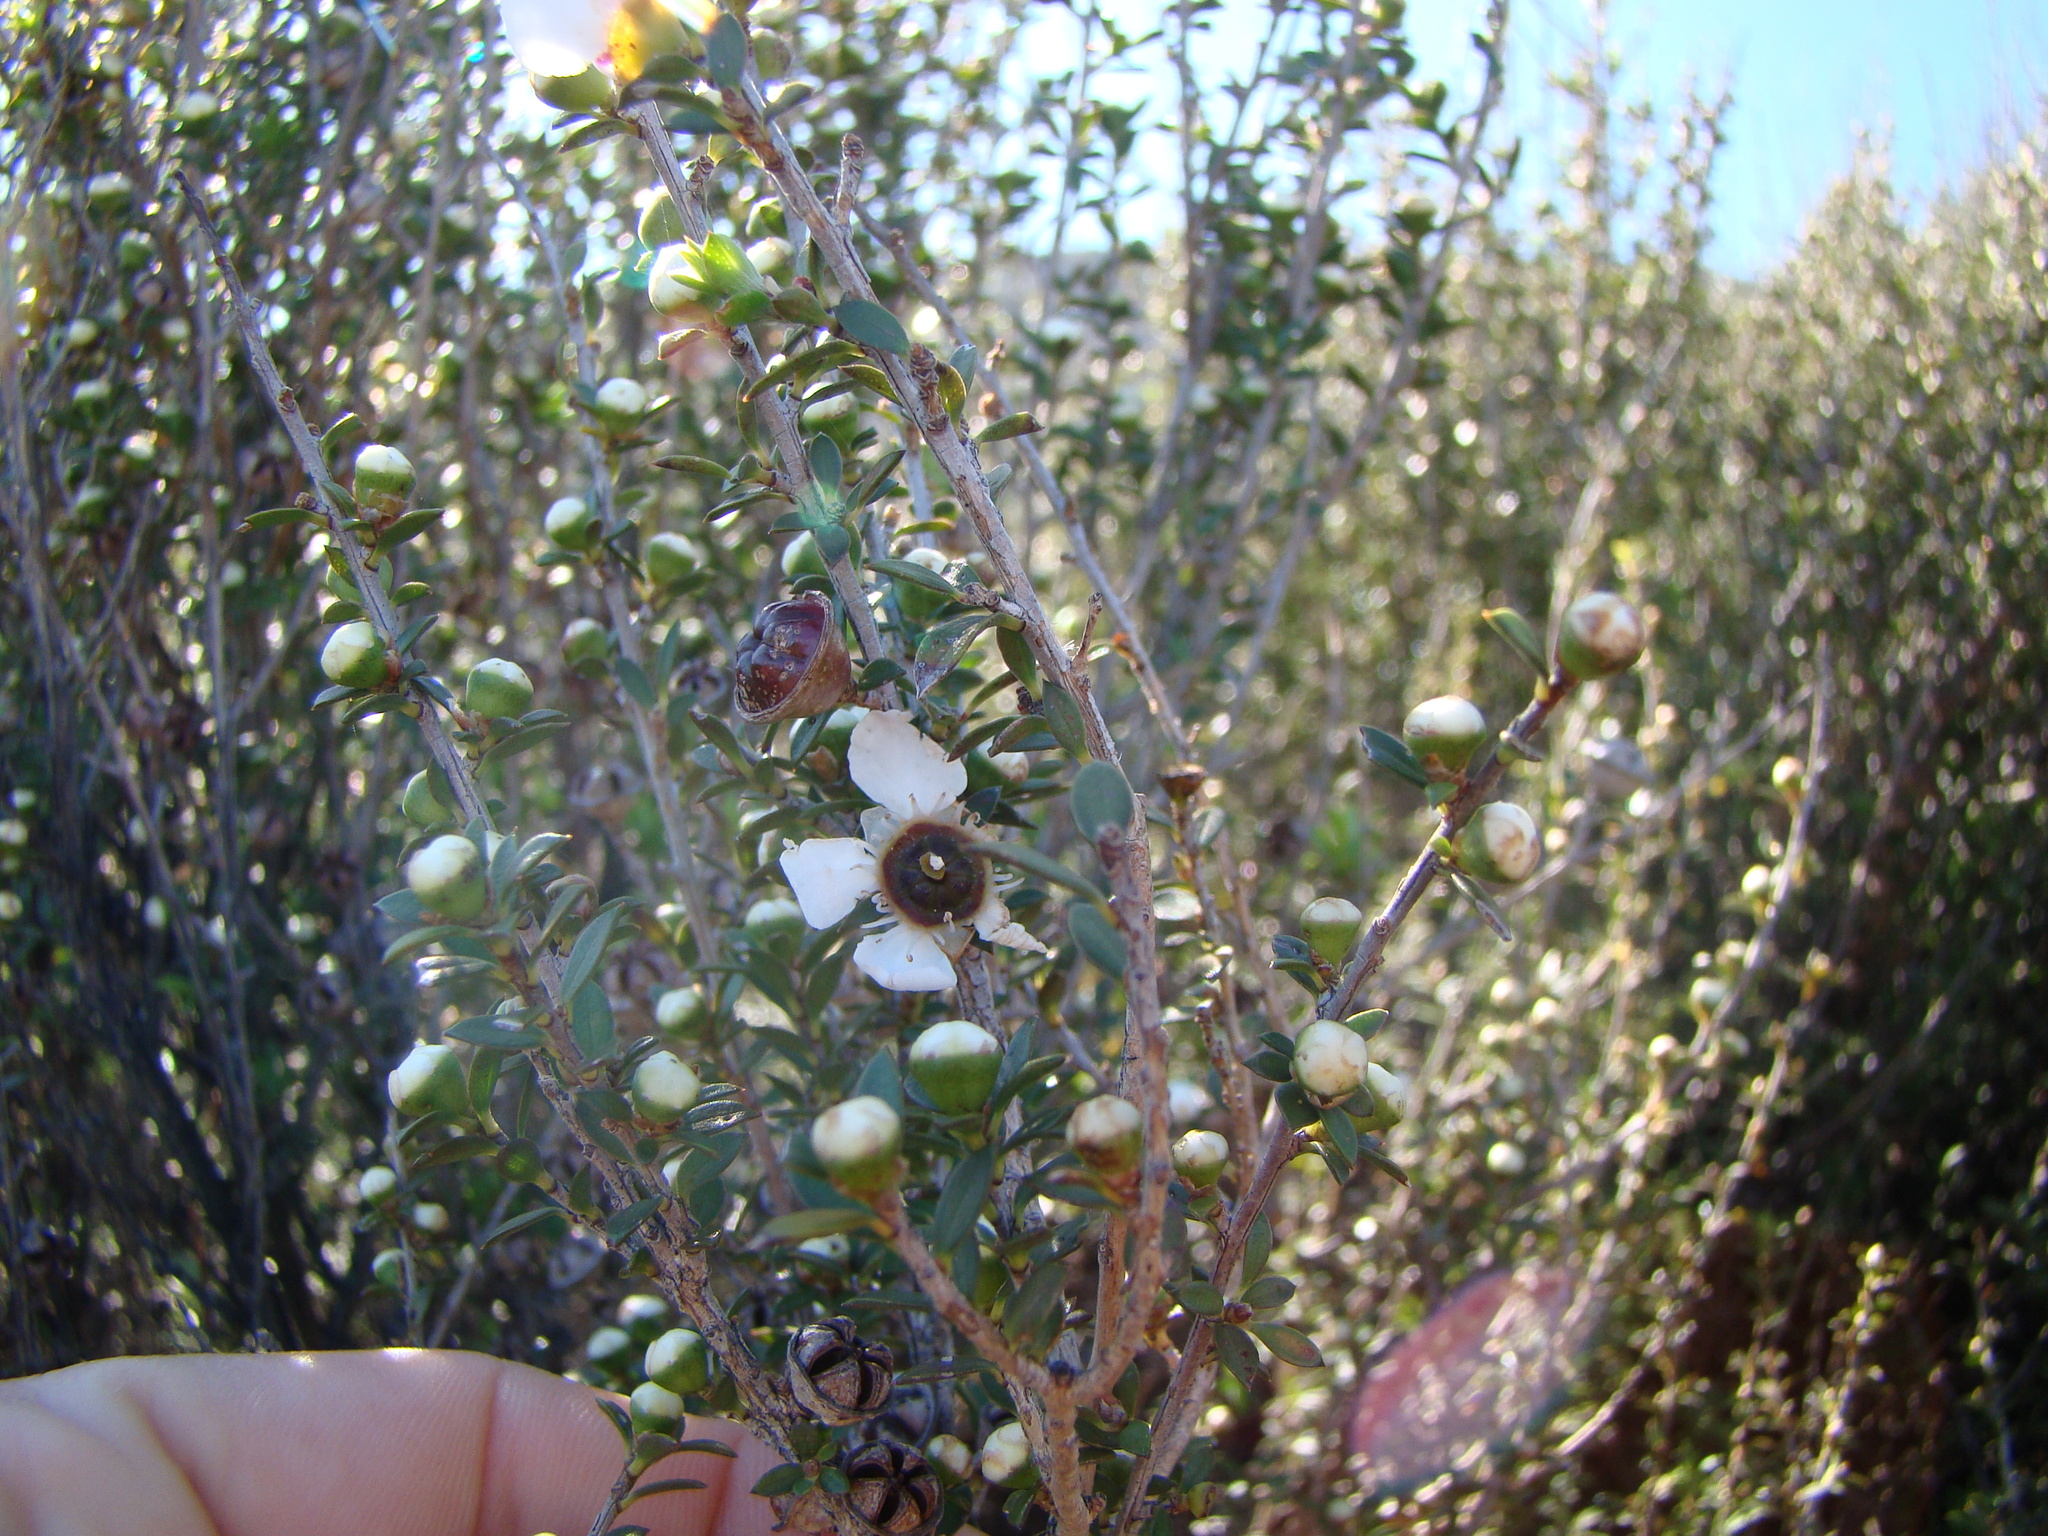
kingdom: Plantae
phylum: Tracheophyta
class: Magnoliopsida
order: Myrtales
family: Myrtaceae
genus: Leptospermum
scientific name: Leptospermum scoparium
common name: Broom tea-tree
